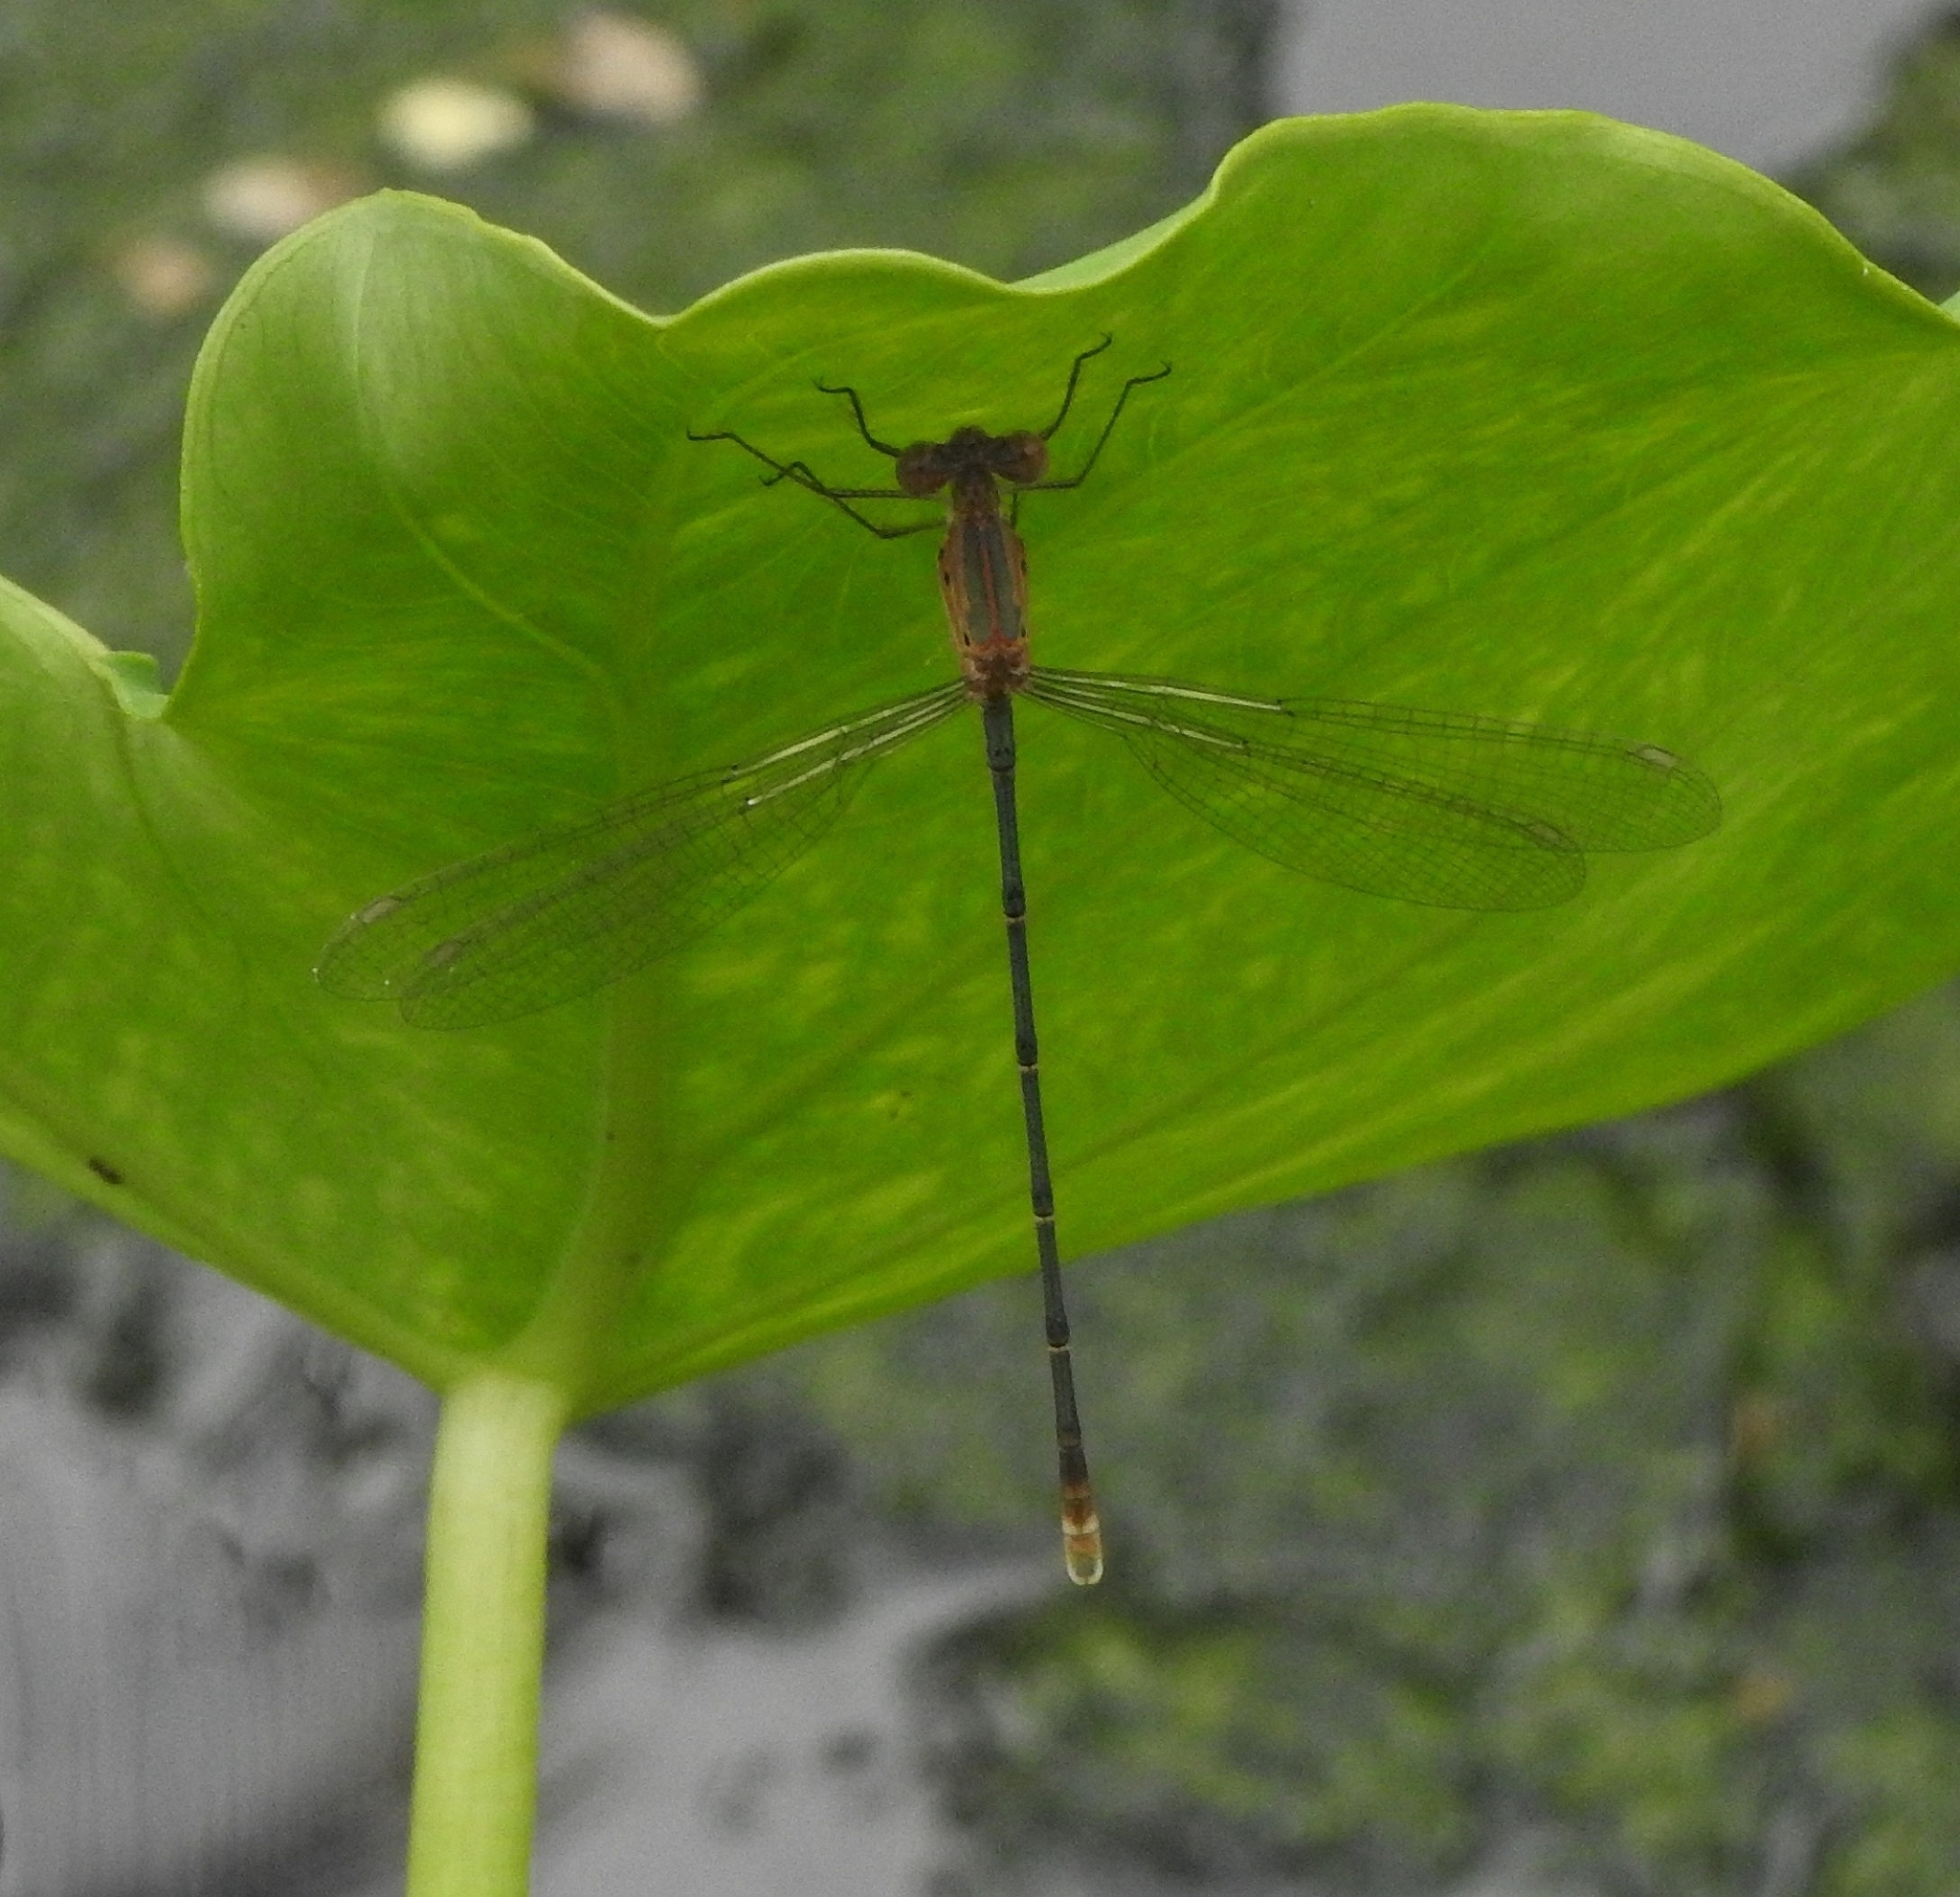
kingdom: Animalia
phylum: Arthropoda
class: Insecta
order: Odonata
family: Lestidae
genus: Lestes
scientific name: Lestes elatus
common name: Emerald spreadwing
